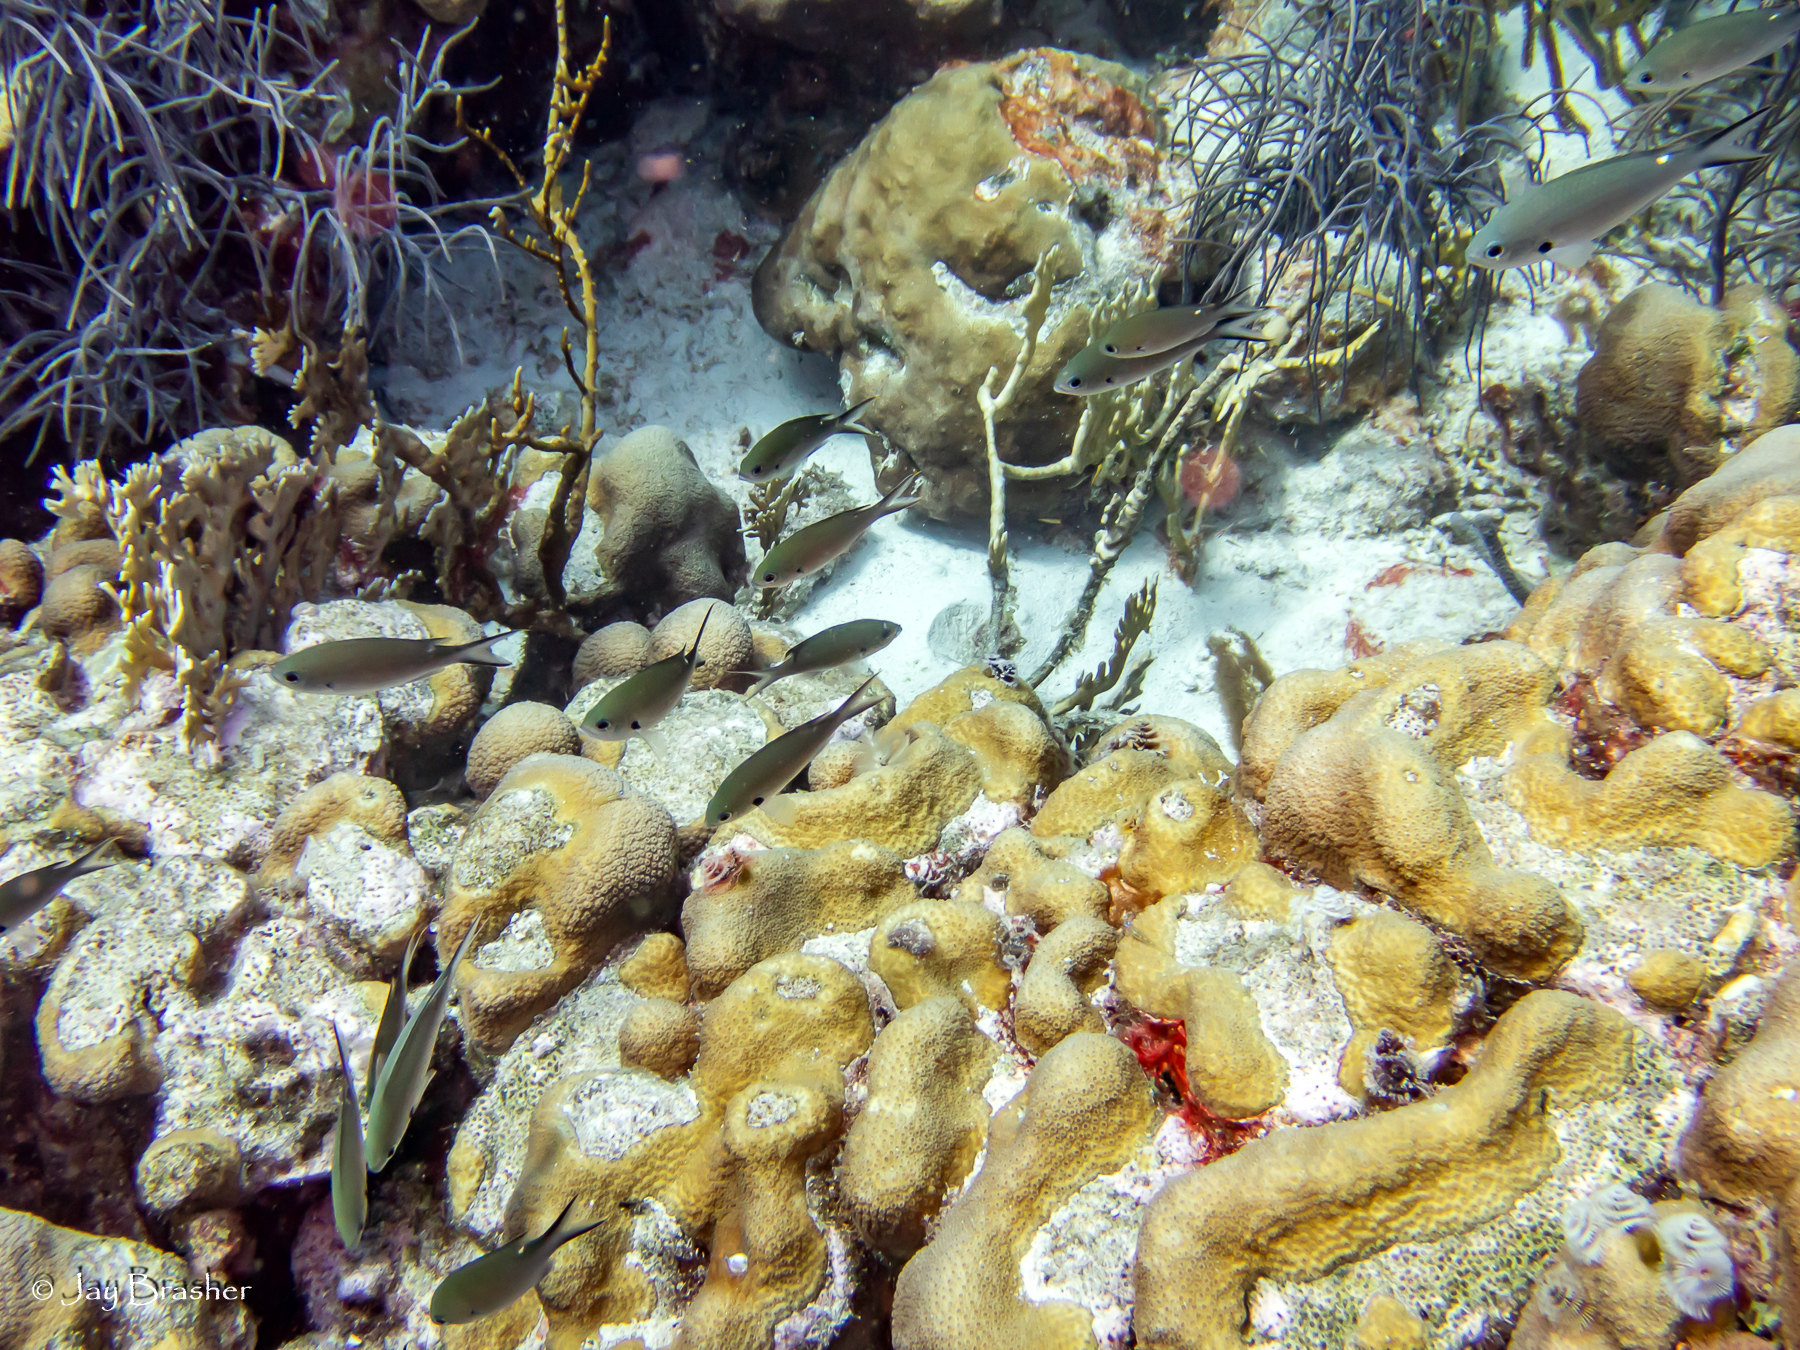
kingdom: Animalia
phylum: Chordata
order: Perciformes
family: Pomacentridae
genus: Chromis
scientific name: Chromis multilineata
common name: Brown chromis
